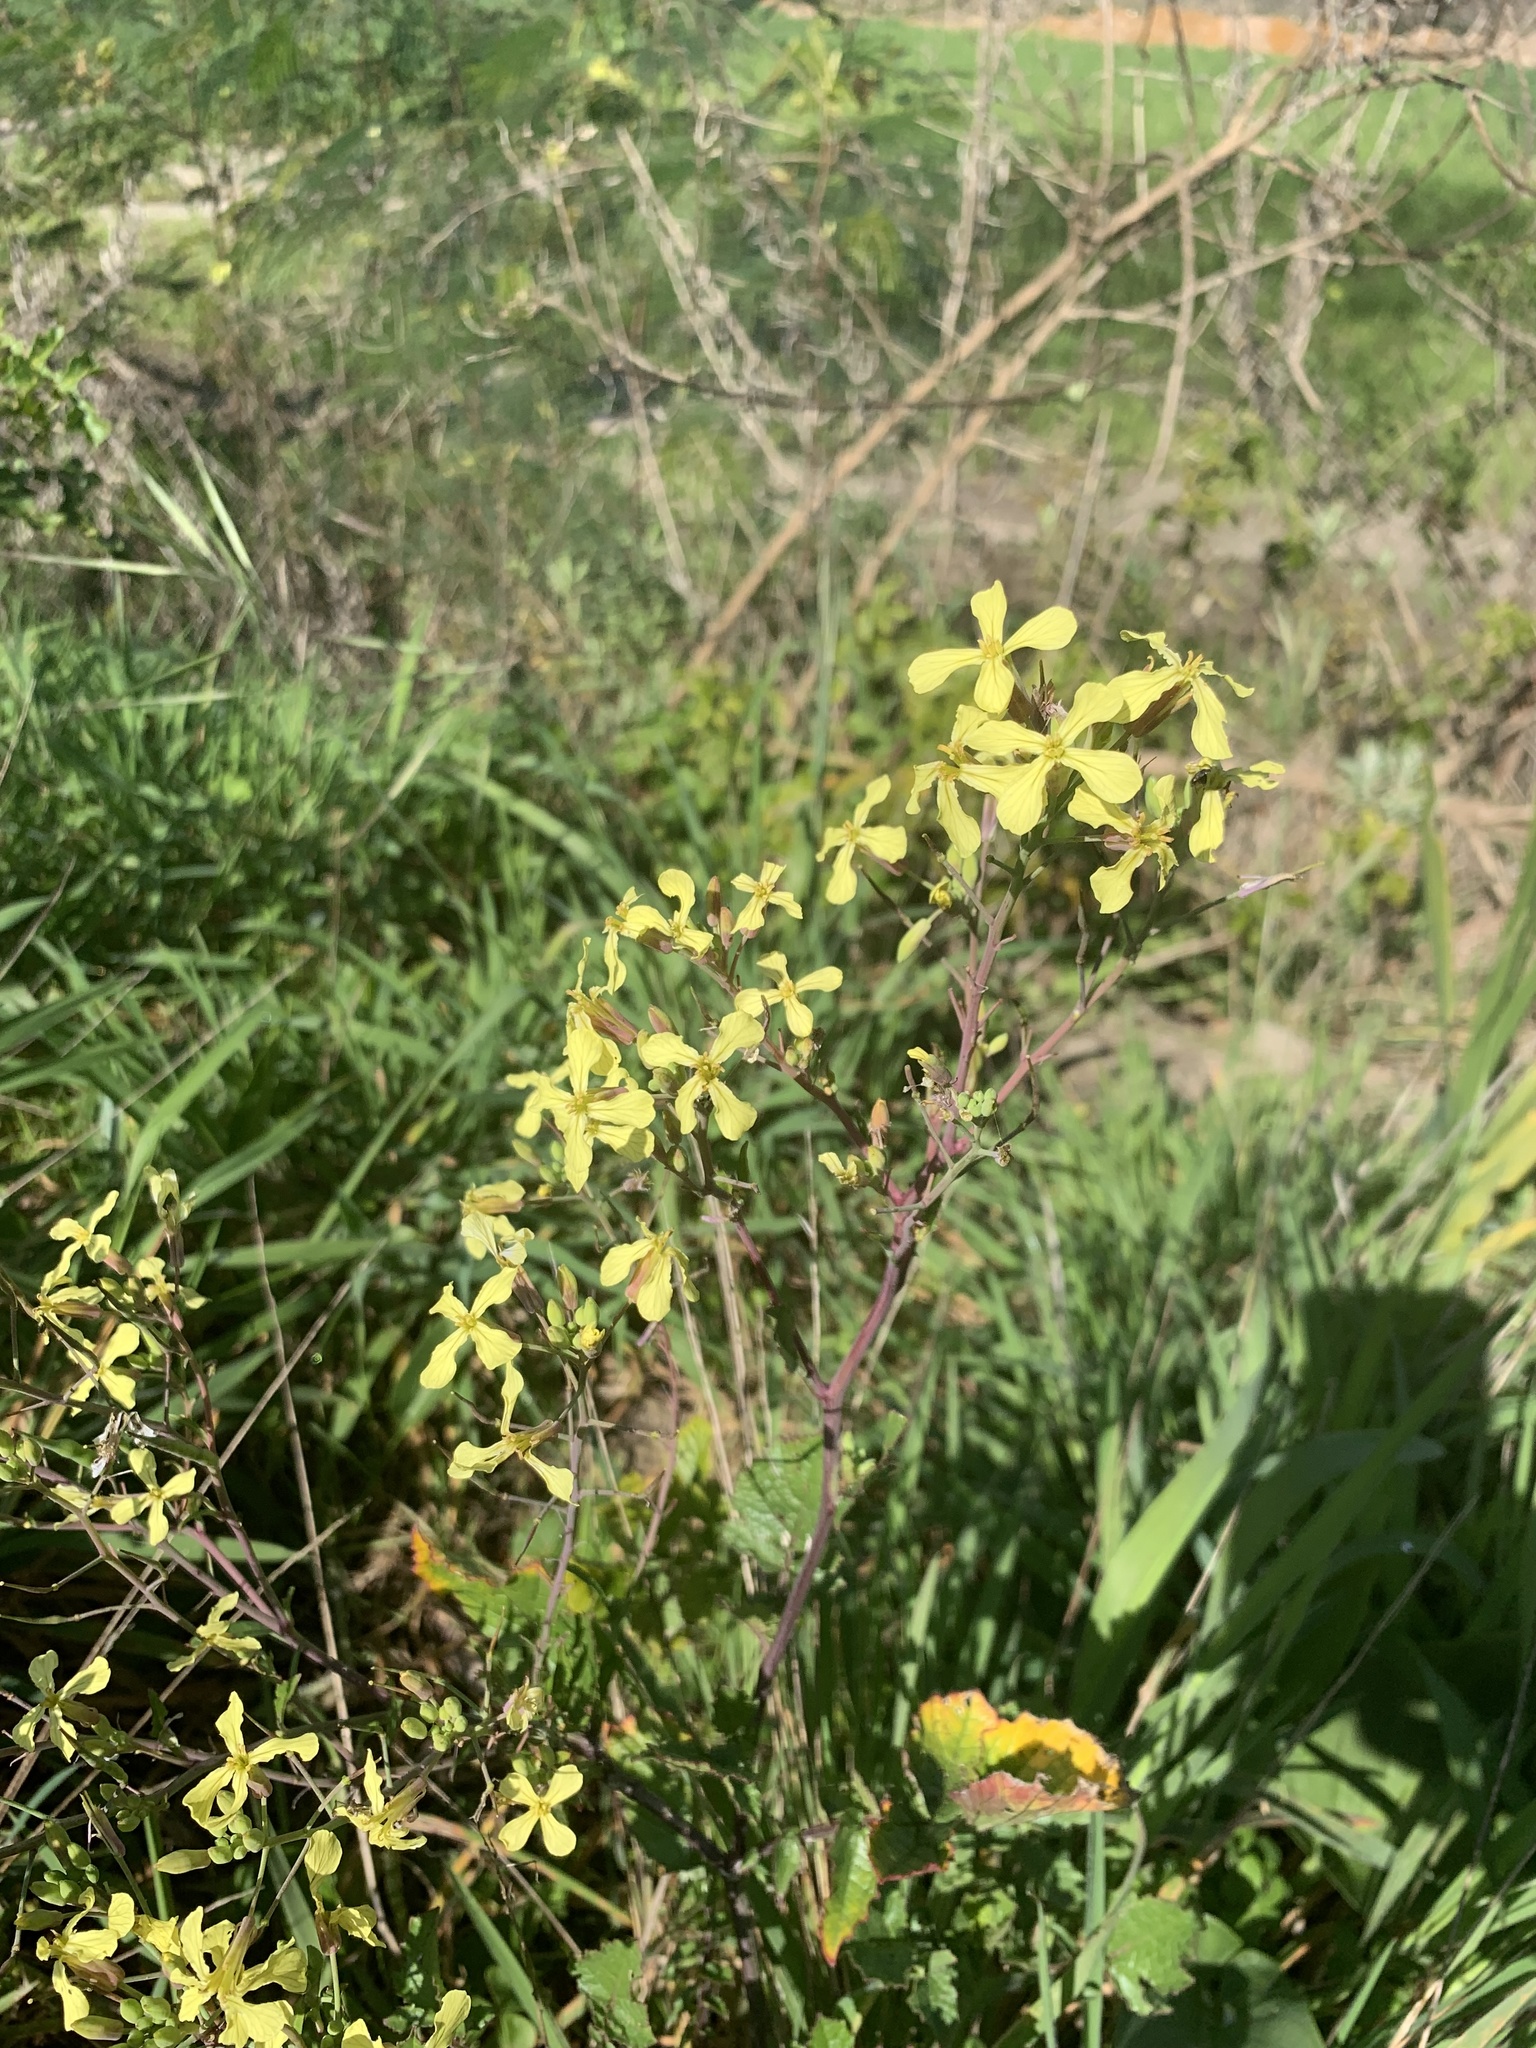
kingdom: Plantae
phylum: Tracheophyta
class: Magnoliopsida
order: Brassicales
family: Brassicaceae
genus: Raphanus
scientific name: Raphanus raphanistrum
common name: Wild radish
